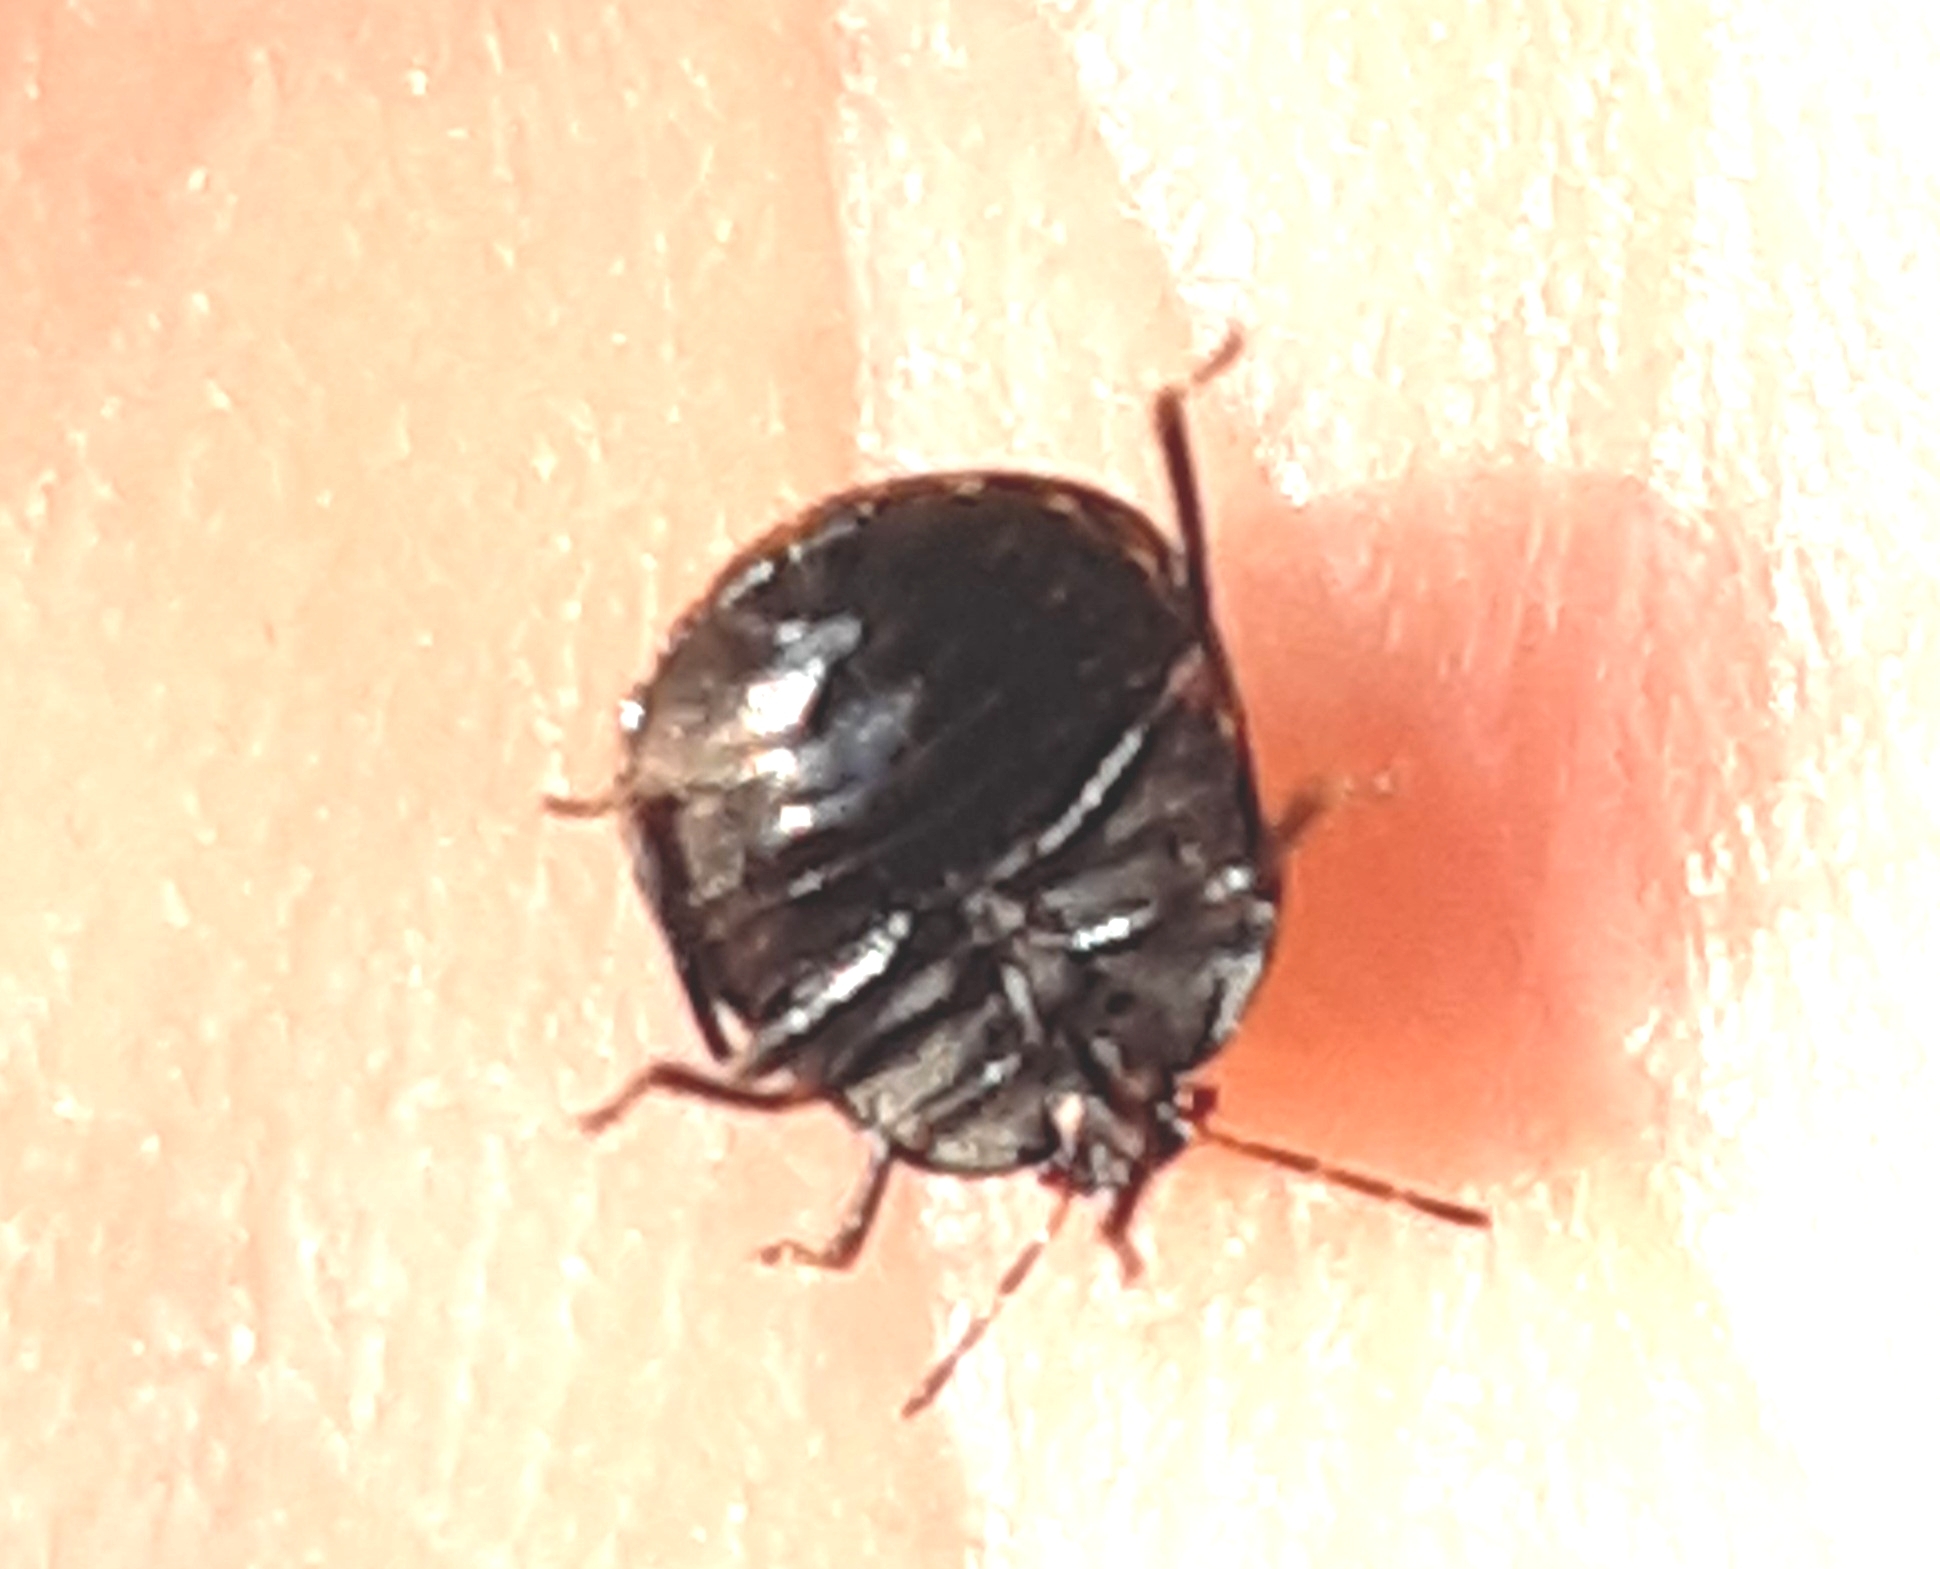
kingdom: Animalia
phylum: Arthropoda
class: Insecta
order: Hemiptera
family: Plataspidae
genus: Coptosoma
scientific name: Coptosoma scutellatum
